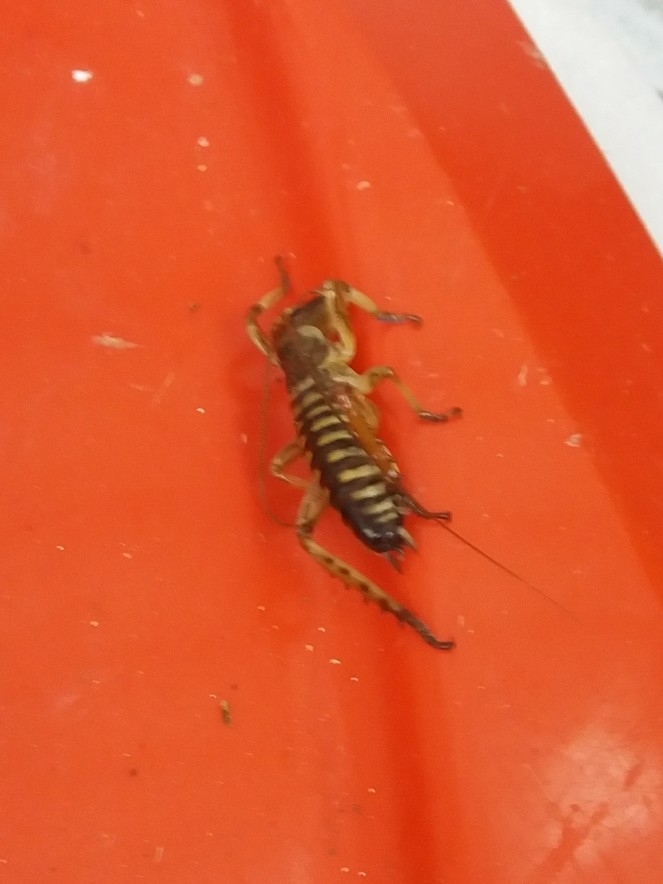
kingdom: Animalia
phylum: Arthropoda
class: Insecta
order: Orthoptera
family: Anostostomatidae
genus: Hemideina
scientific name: Hemideina crassidens
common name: Wellington tree weta
